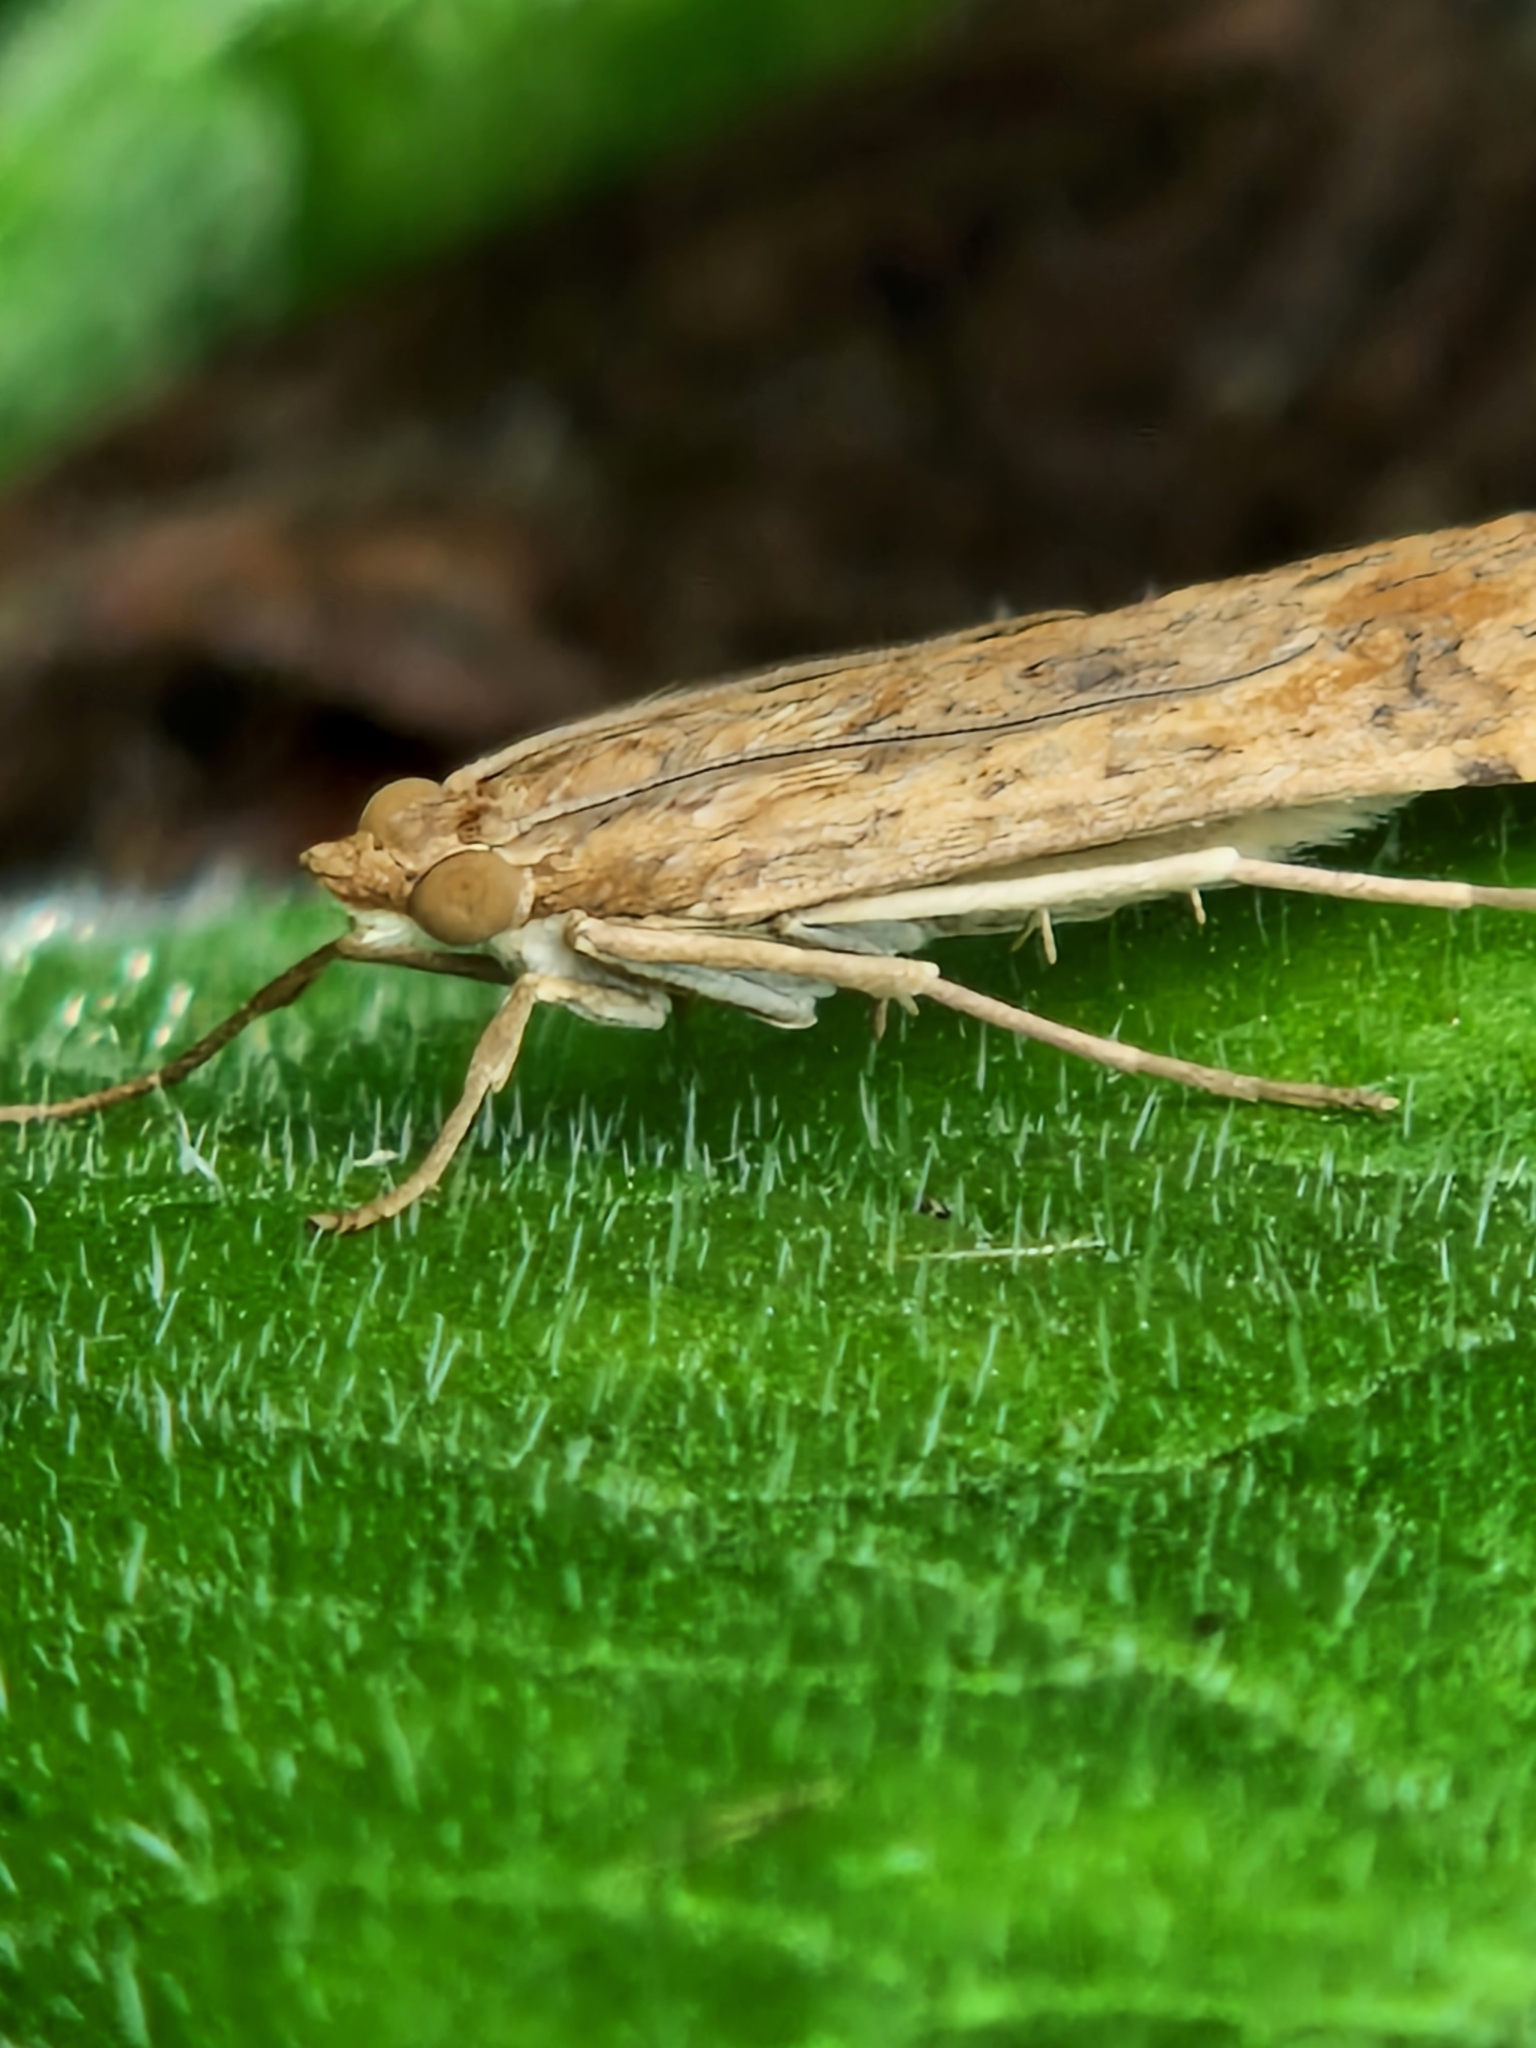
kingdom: Animalia
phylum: Arthropoda
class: Insecta
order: Lepidoptera
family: Crambidae
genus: Nomophila
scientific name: Nomophila noctuella
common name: Rush veneer
